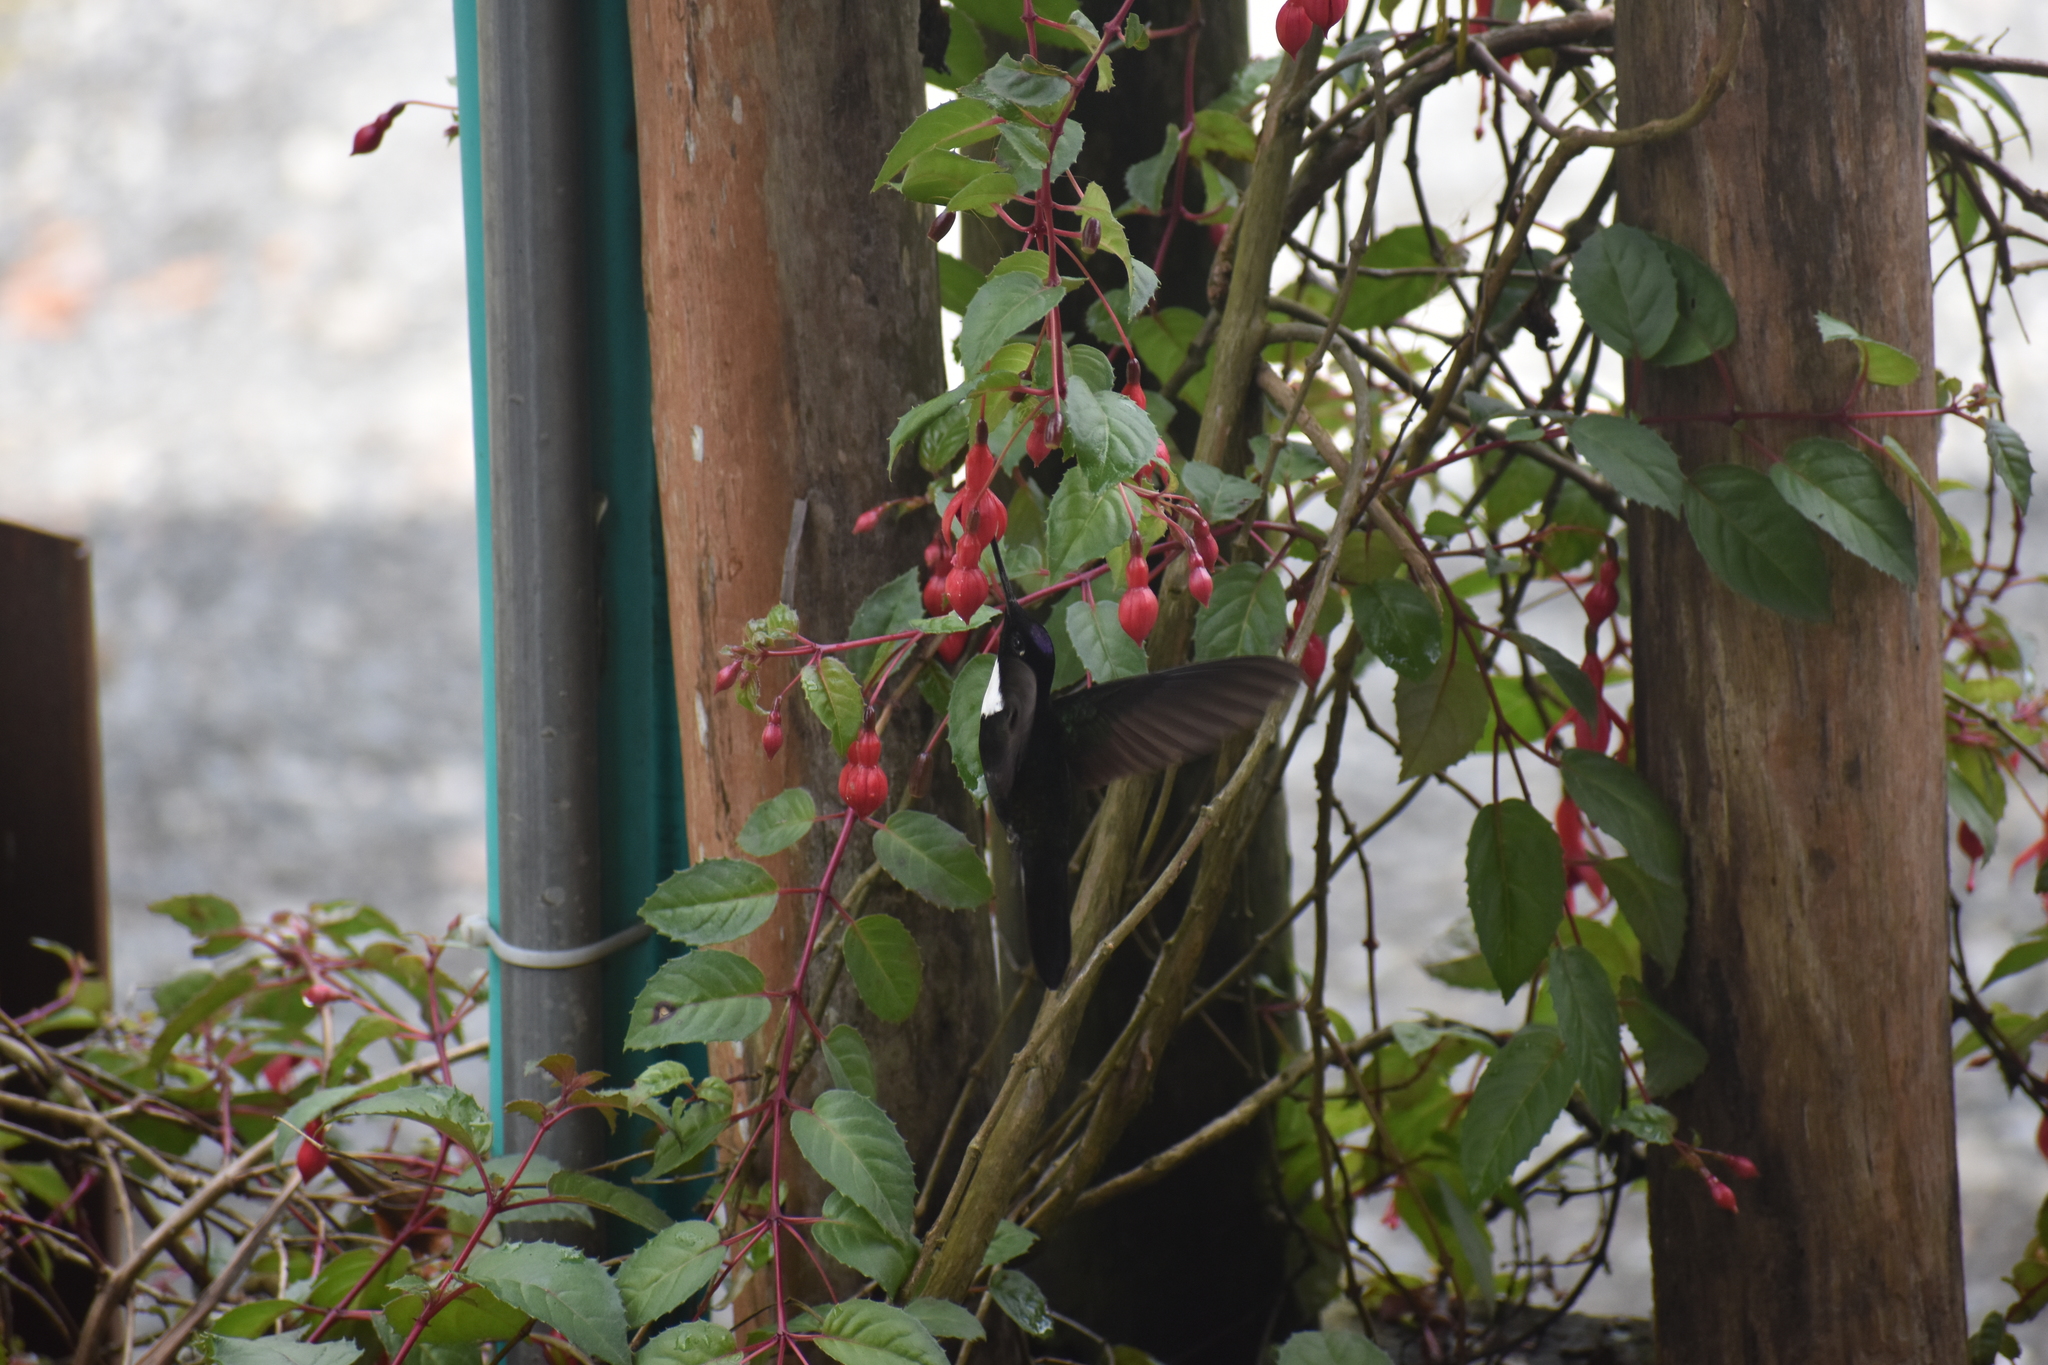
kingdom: Animalia
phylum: Chordata
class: Aves
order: Apodiformes
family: Trochilidae
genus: Coeligena
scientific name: Coeligena torquata
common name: Collared inca
